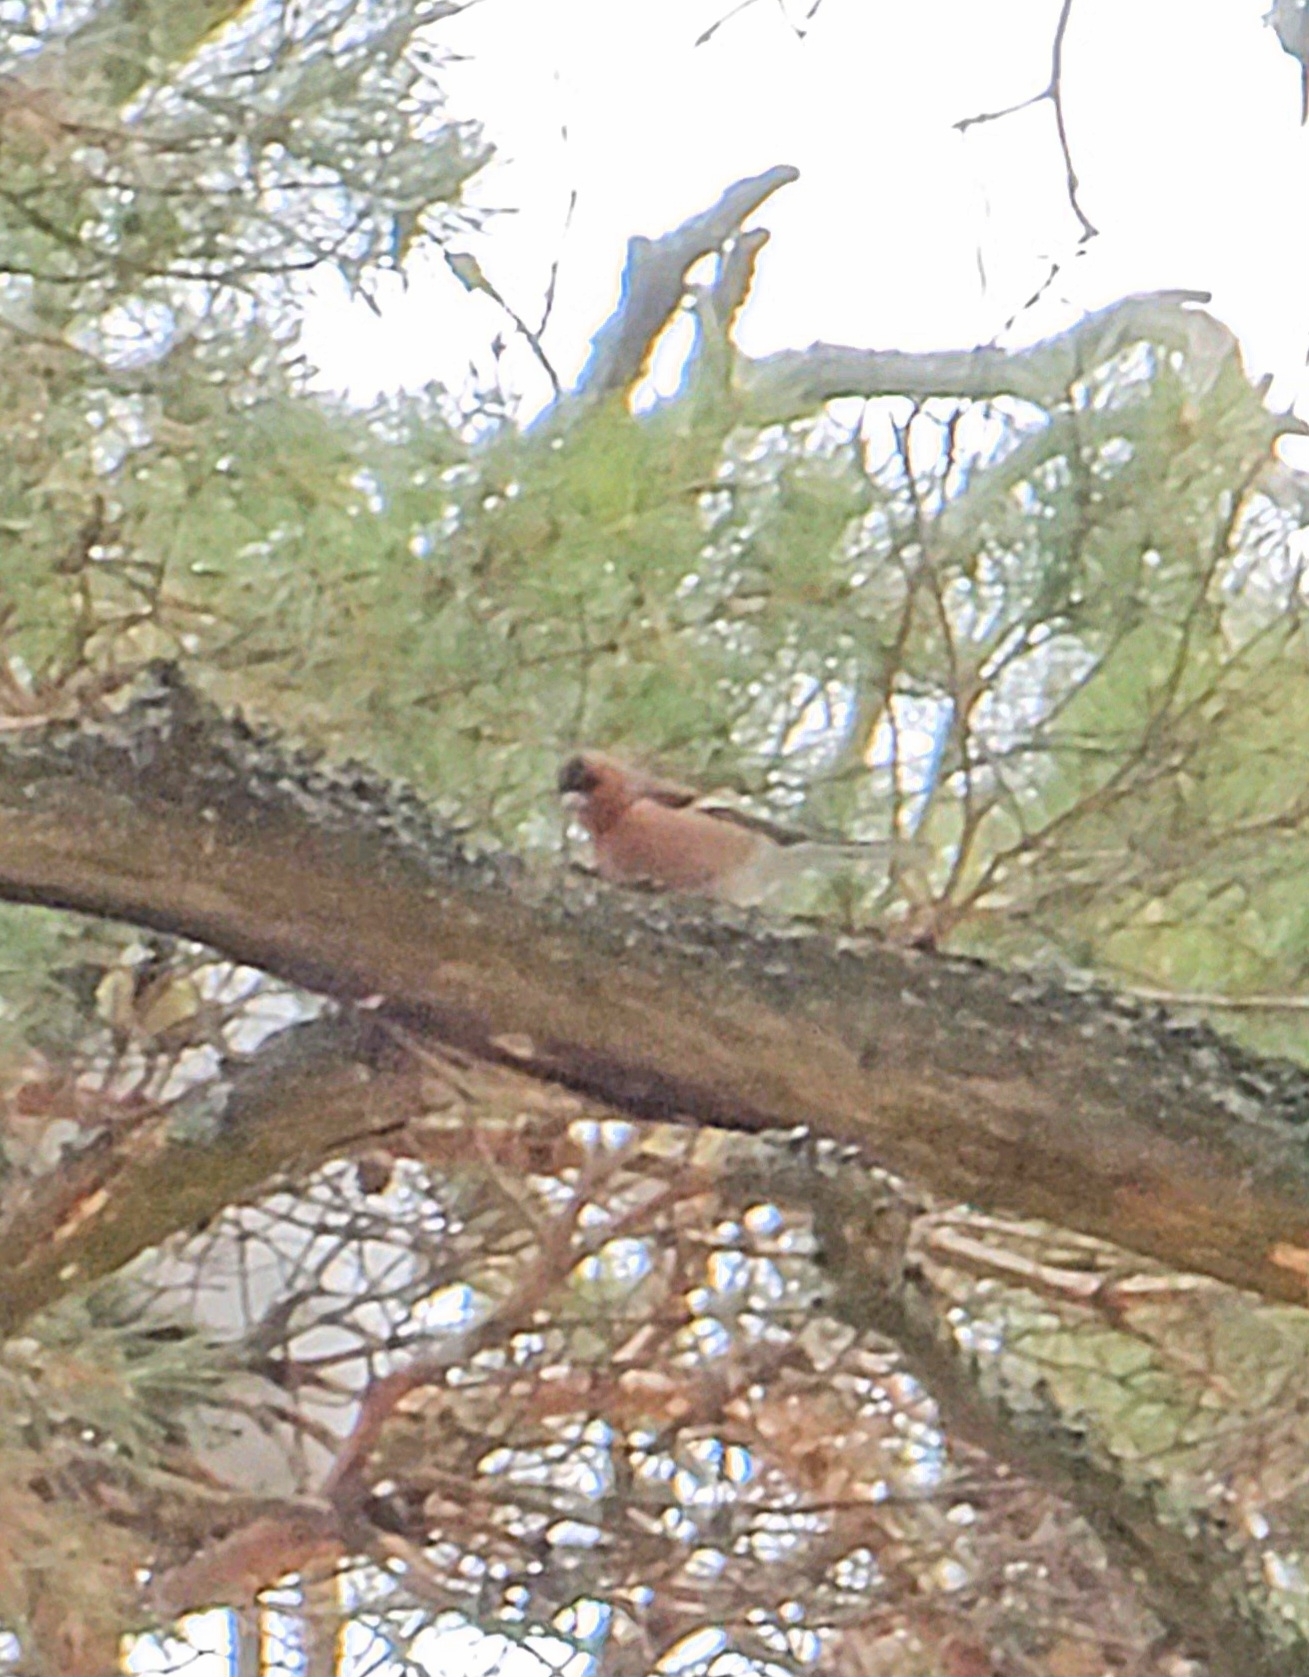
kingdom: Animalia
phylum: Chordata
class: Aves
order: Passeriformes
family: Fringillidae
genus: Fringilla
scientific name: Fringilla coelebs
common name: Common chaffinch
